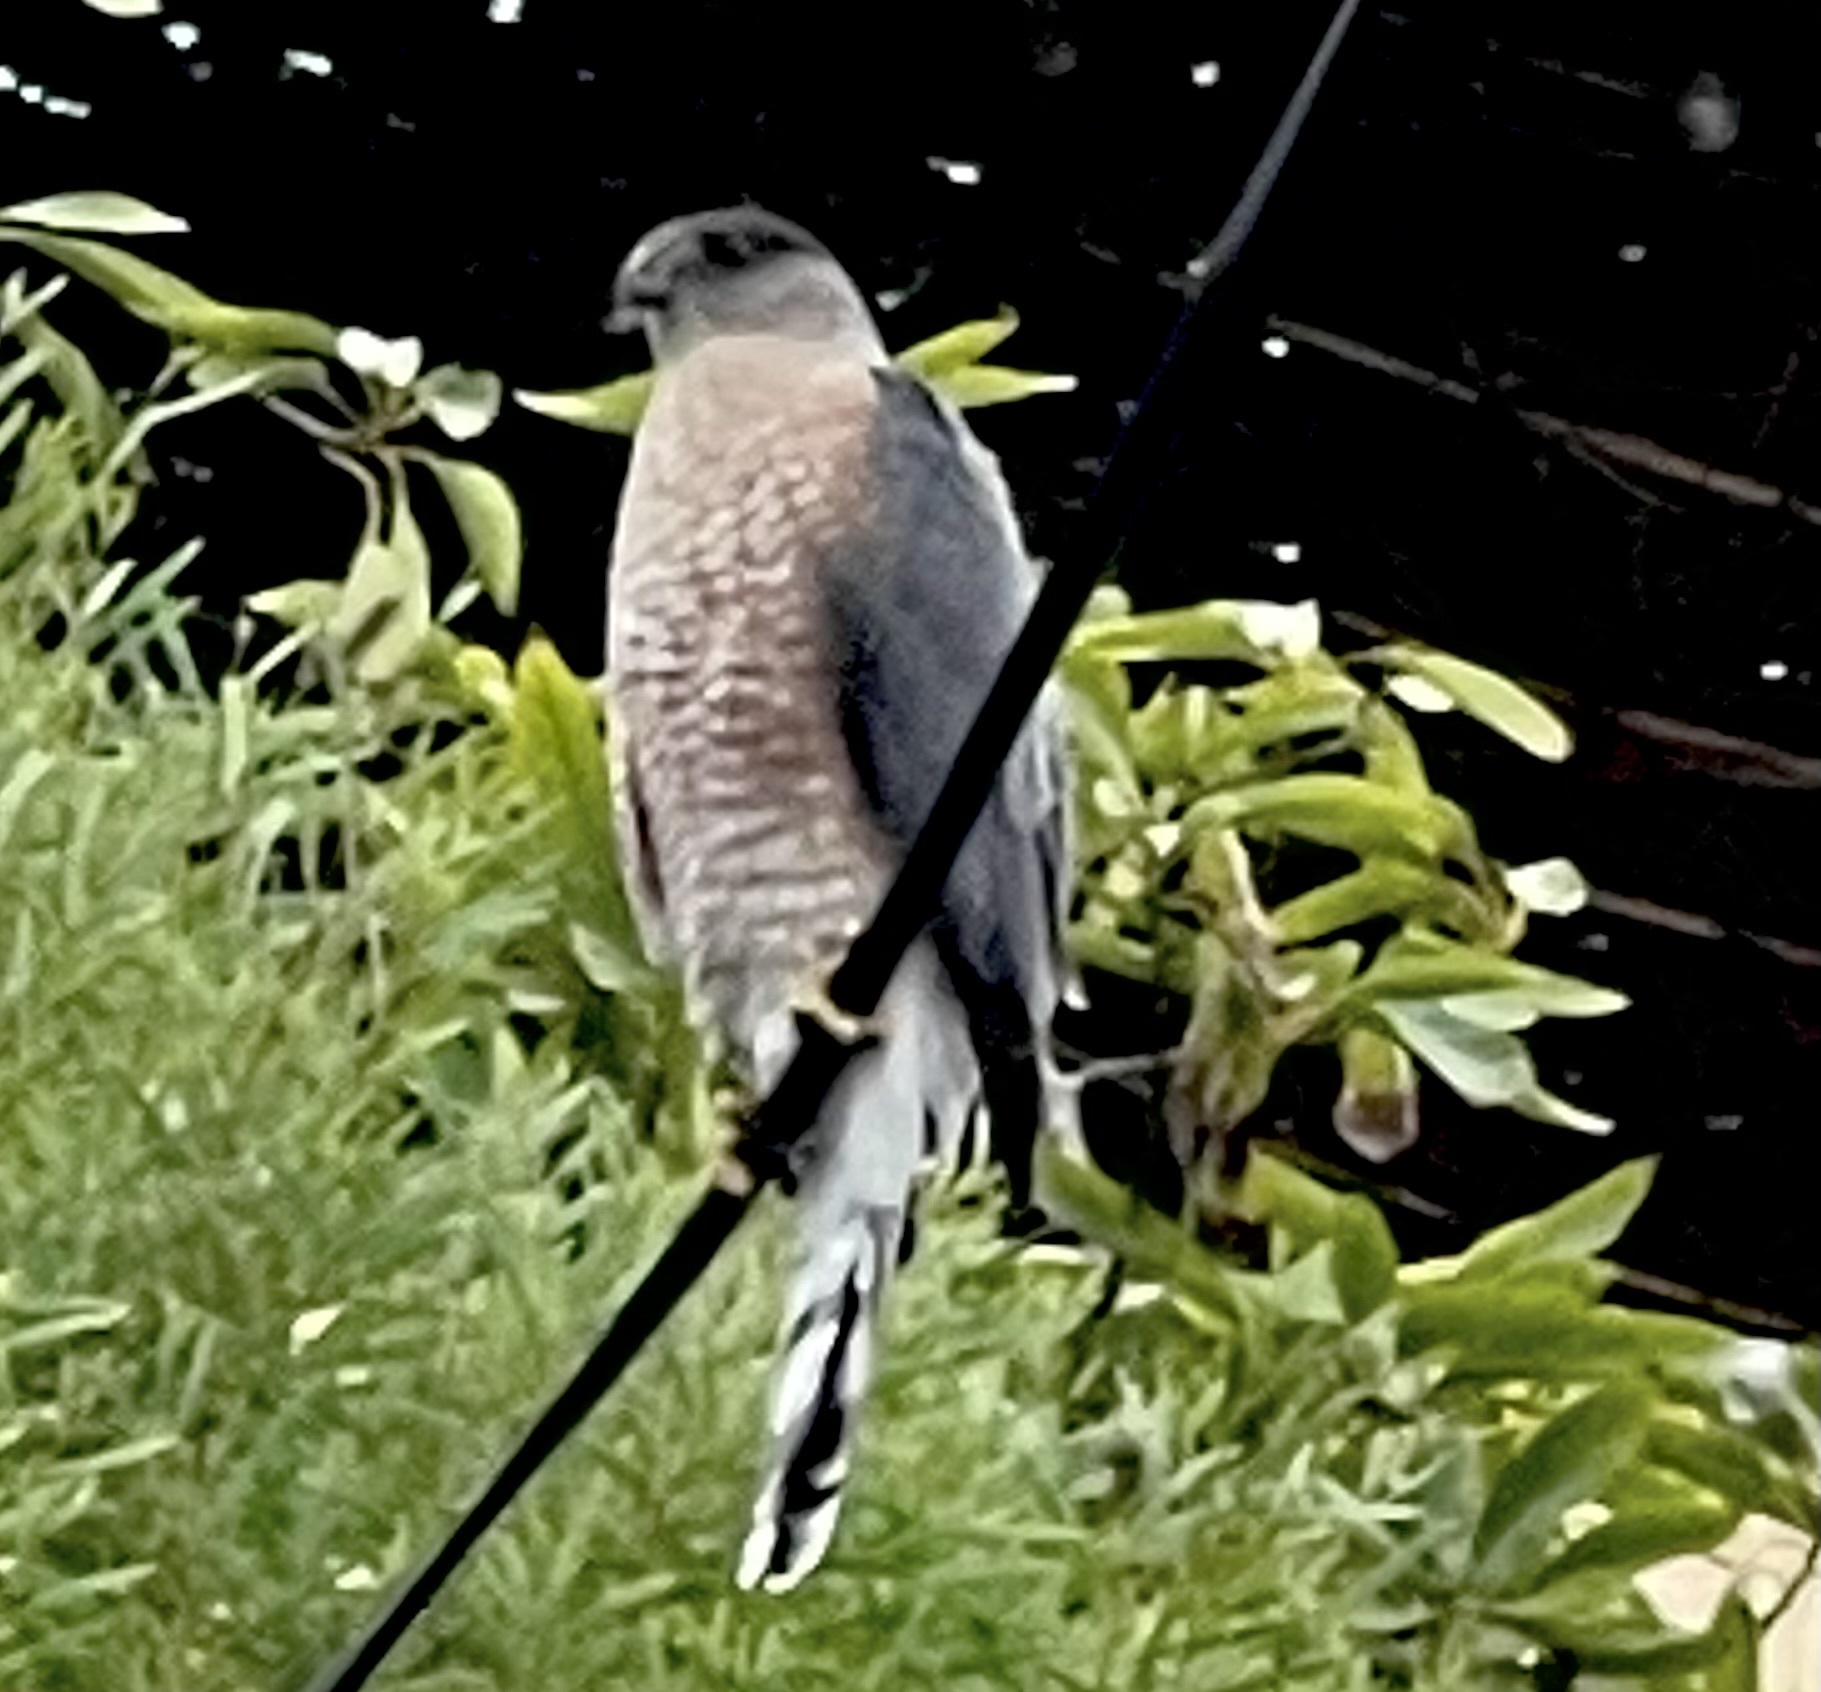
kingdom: Animalia
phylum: Chordata
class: Aves
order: Accipitriformes
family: Accipitridae
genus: Accipiter
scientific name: Accipiter cooperii
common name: Cooper's hawk
